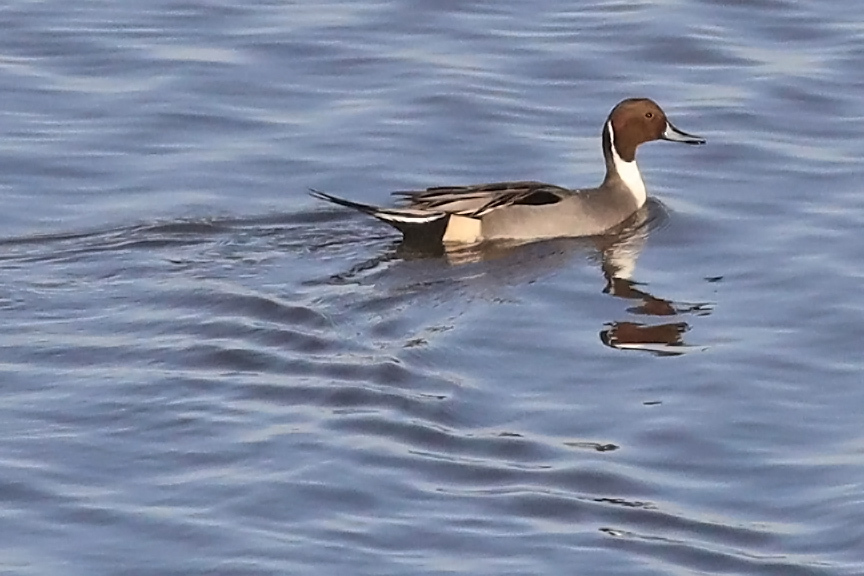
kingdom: Animalia
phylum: Chordata
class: Aves
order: Anseriformes
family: Anatidae
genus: Anas
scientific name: Anas acuta
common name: Northern pintail
